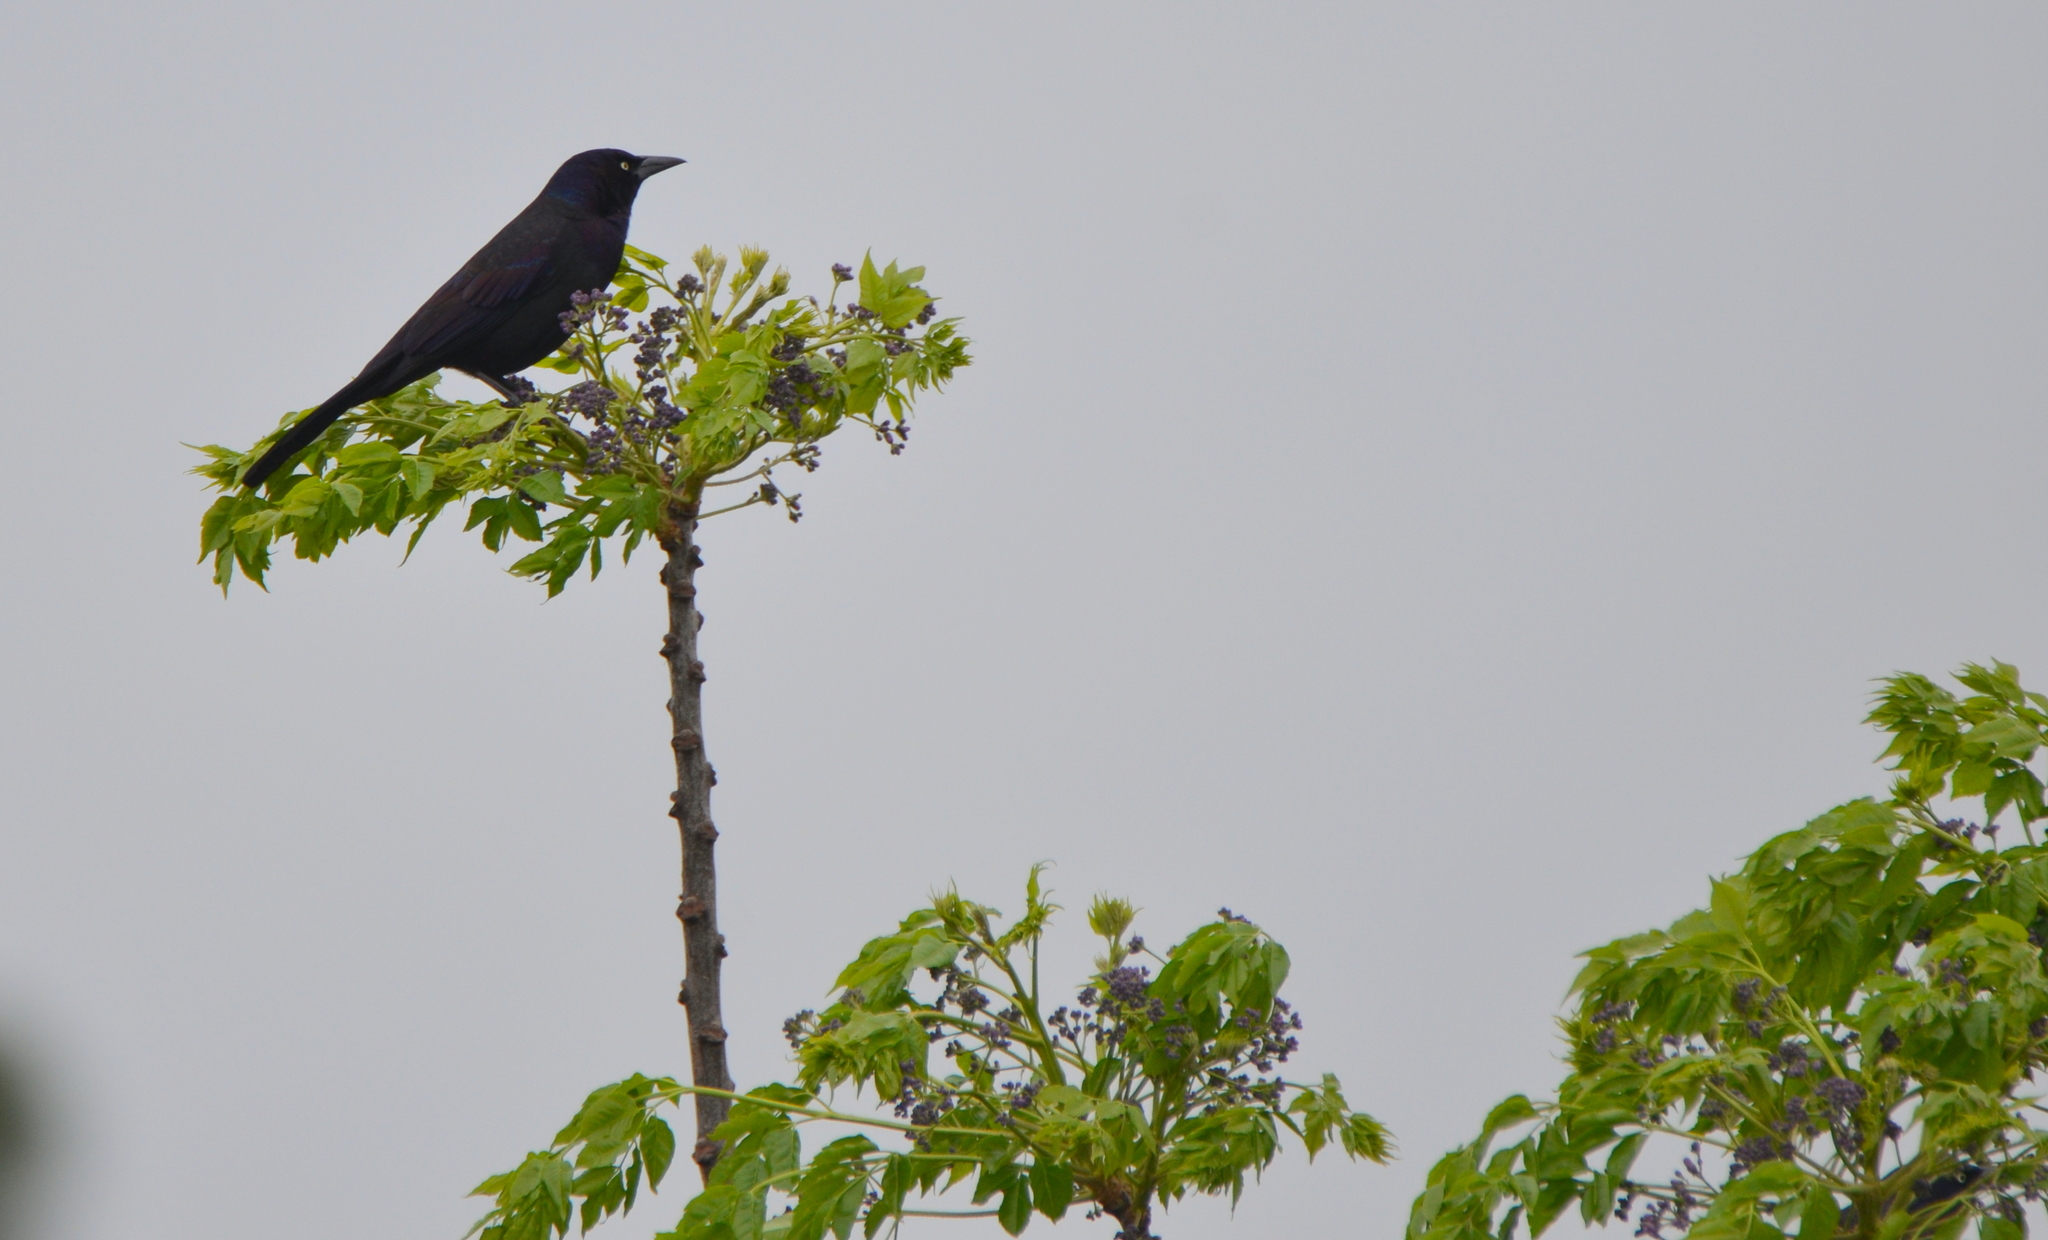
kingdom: Animalia
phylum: Chordata
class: Aves
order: Passeriformes
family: Icteridae
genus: Quiscalus
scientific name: Quiscalus quiscula
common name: Common grackle
